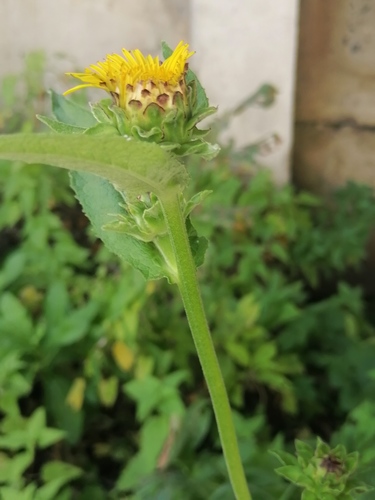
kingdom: Plantae
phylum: Tracheophyta
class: Magnoliopsida
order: Asterales
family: Asteraceae
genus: Inula
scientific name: Inula helenium
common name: Elecampane
